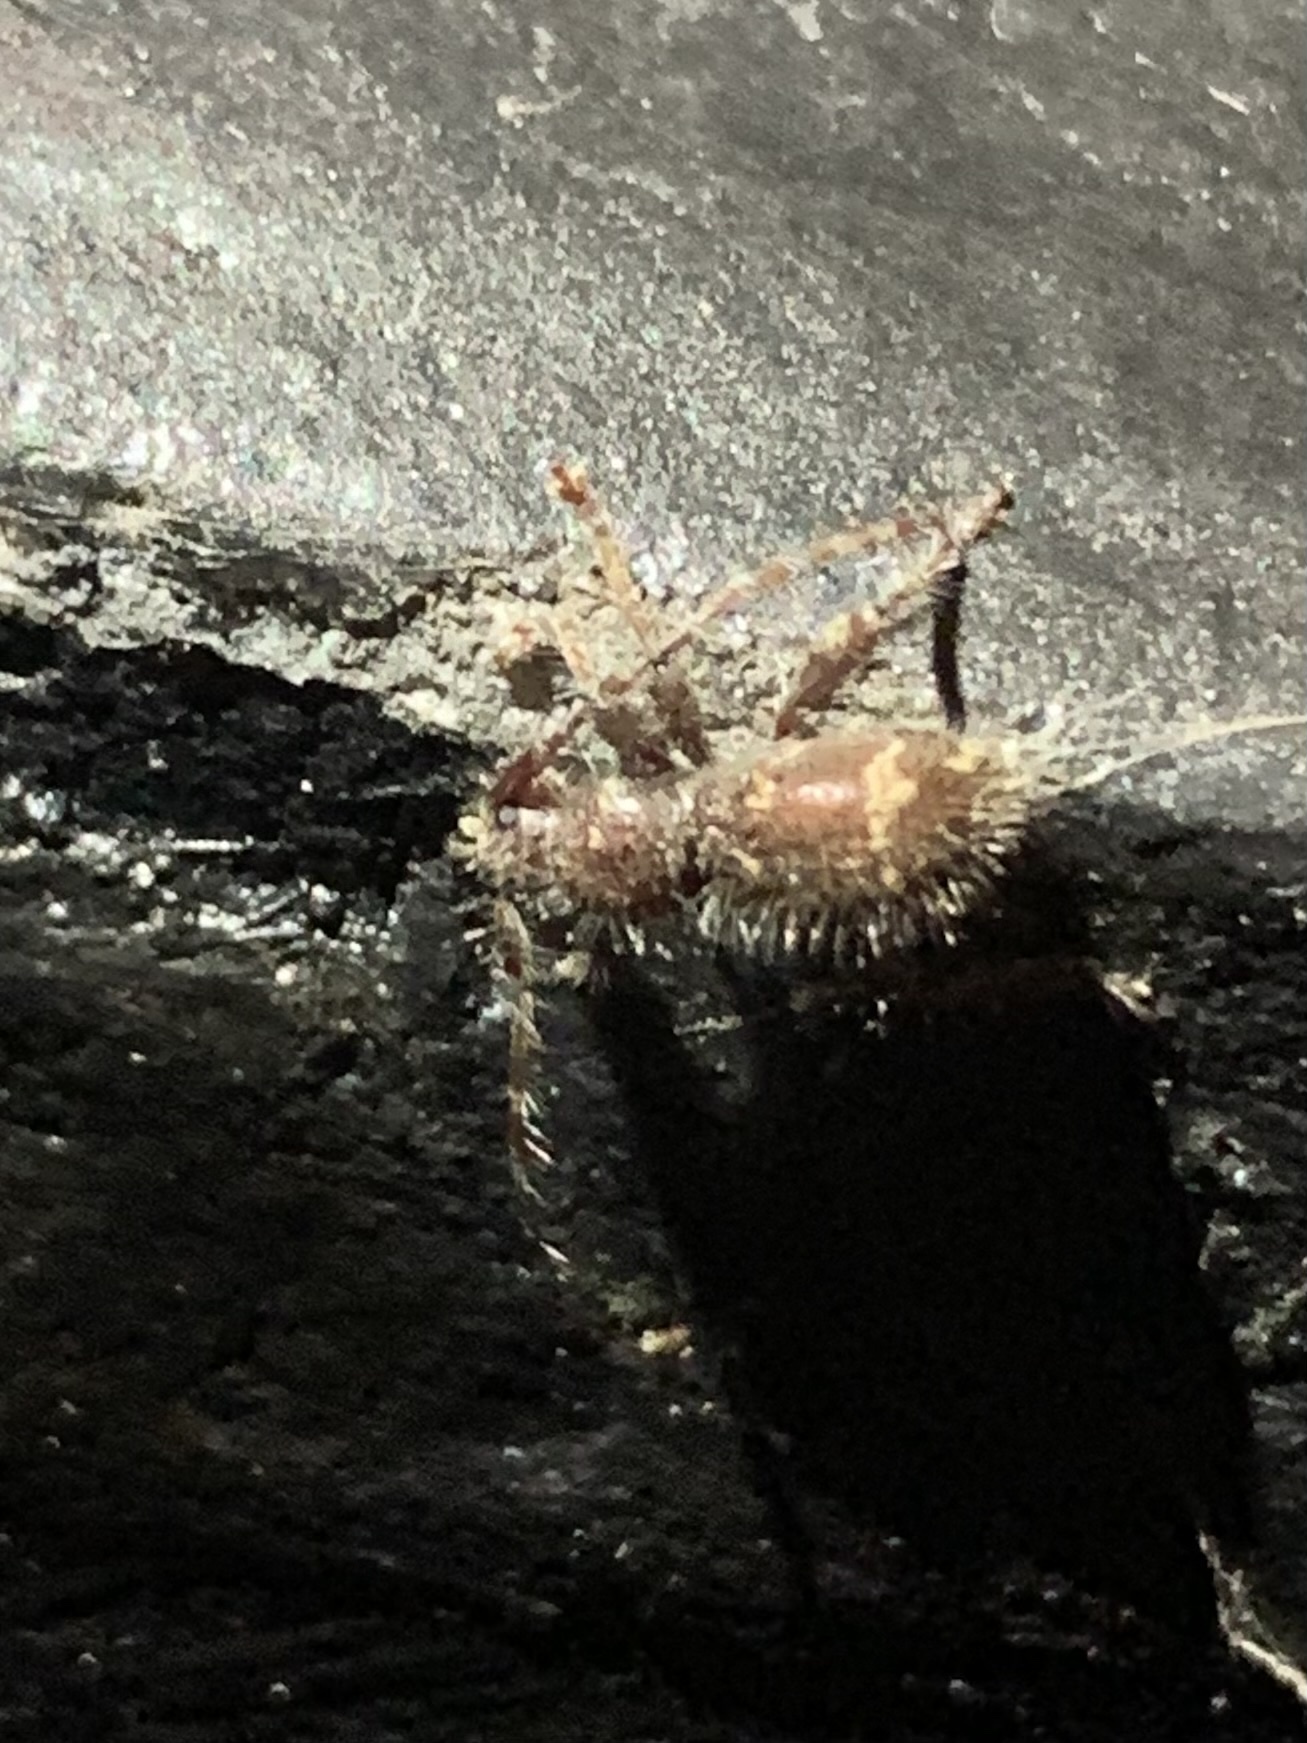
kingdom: Animalia
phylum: Arthropoda
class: Insecta
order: Coleoptera
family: Cerambycidae
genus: Ipochus
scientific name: Ipochus fasciatus
